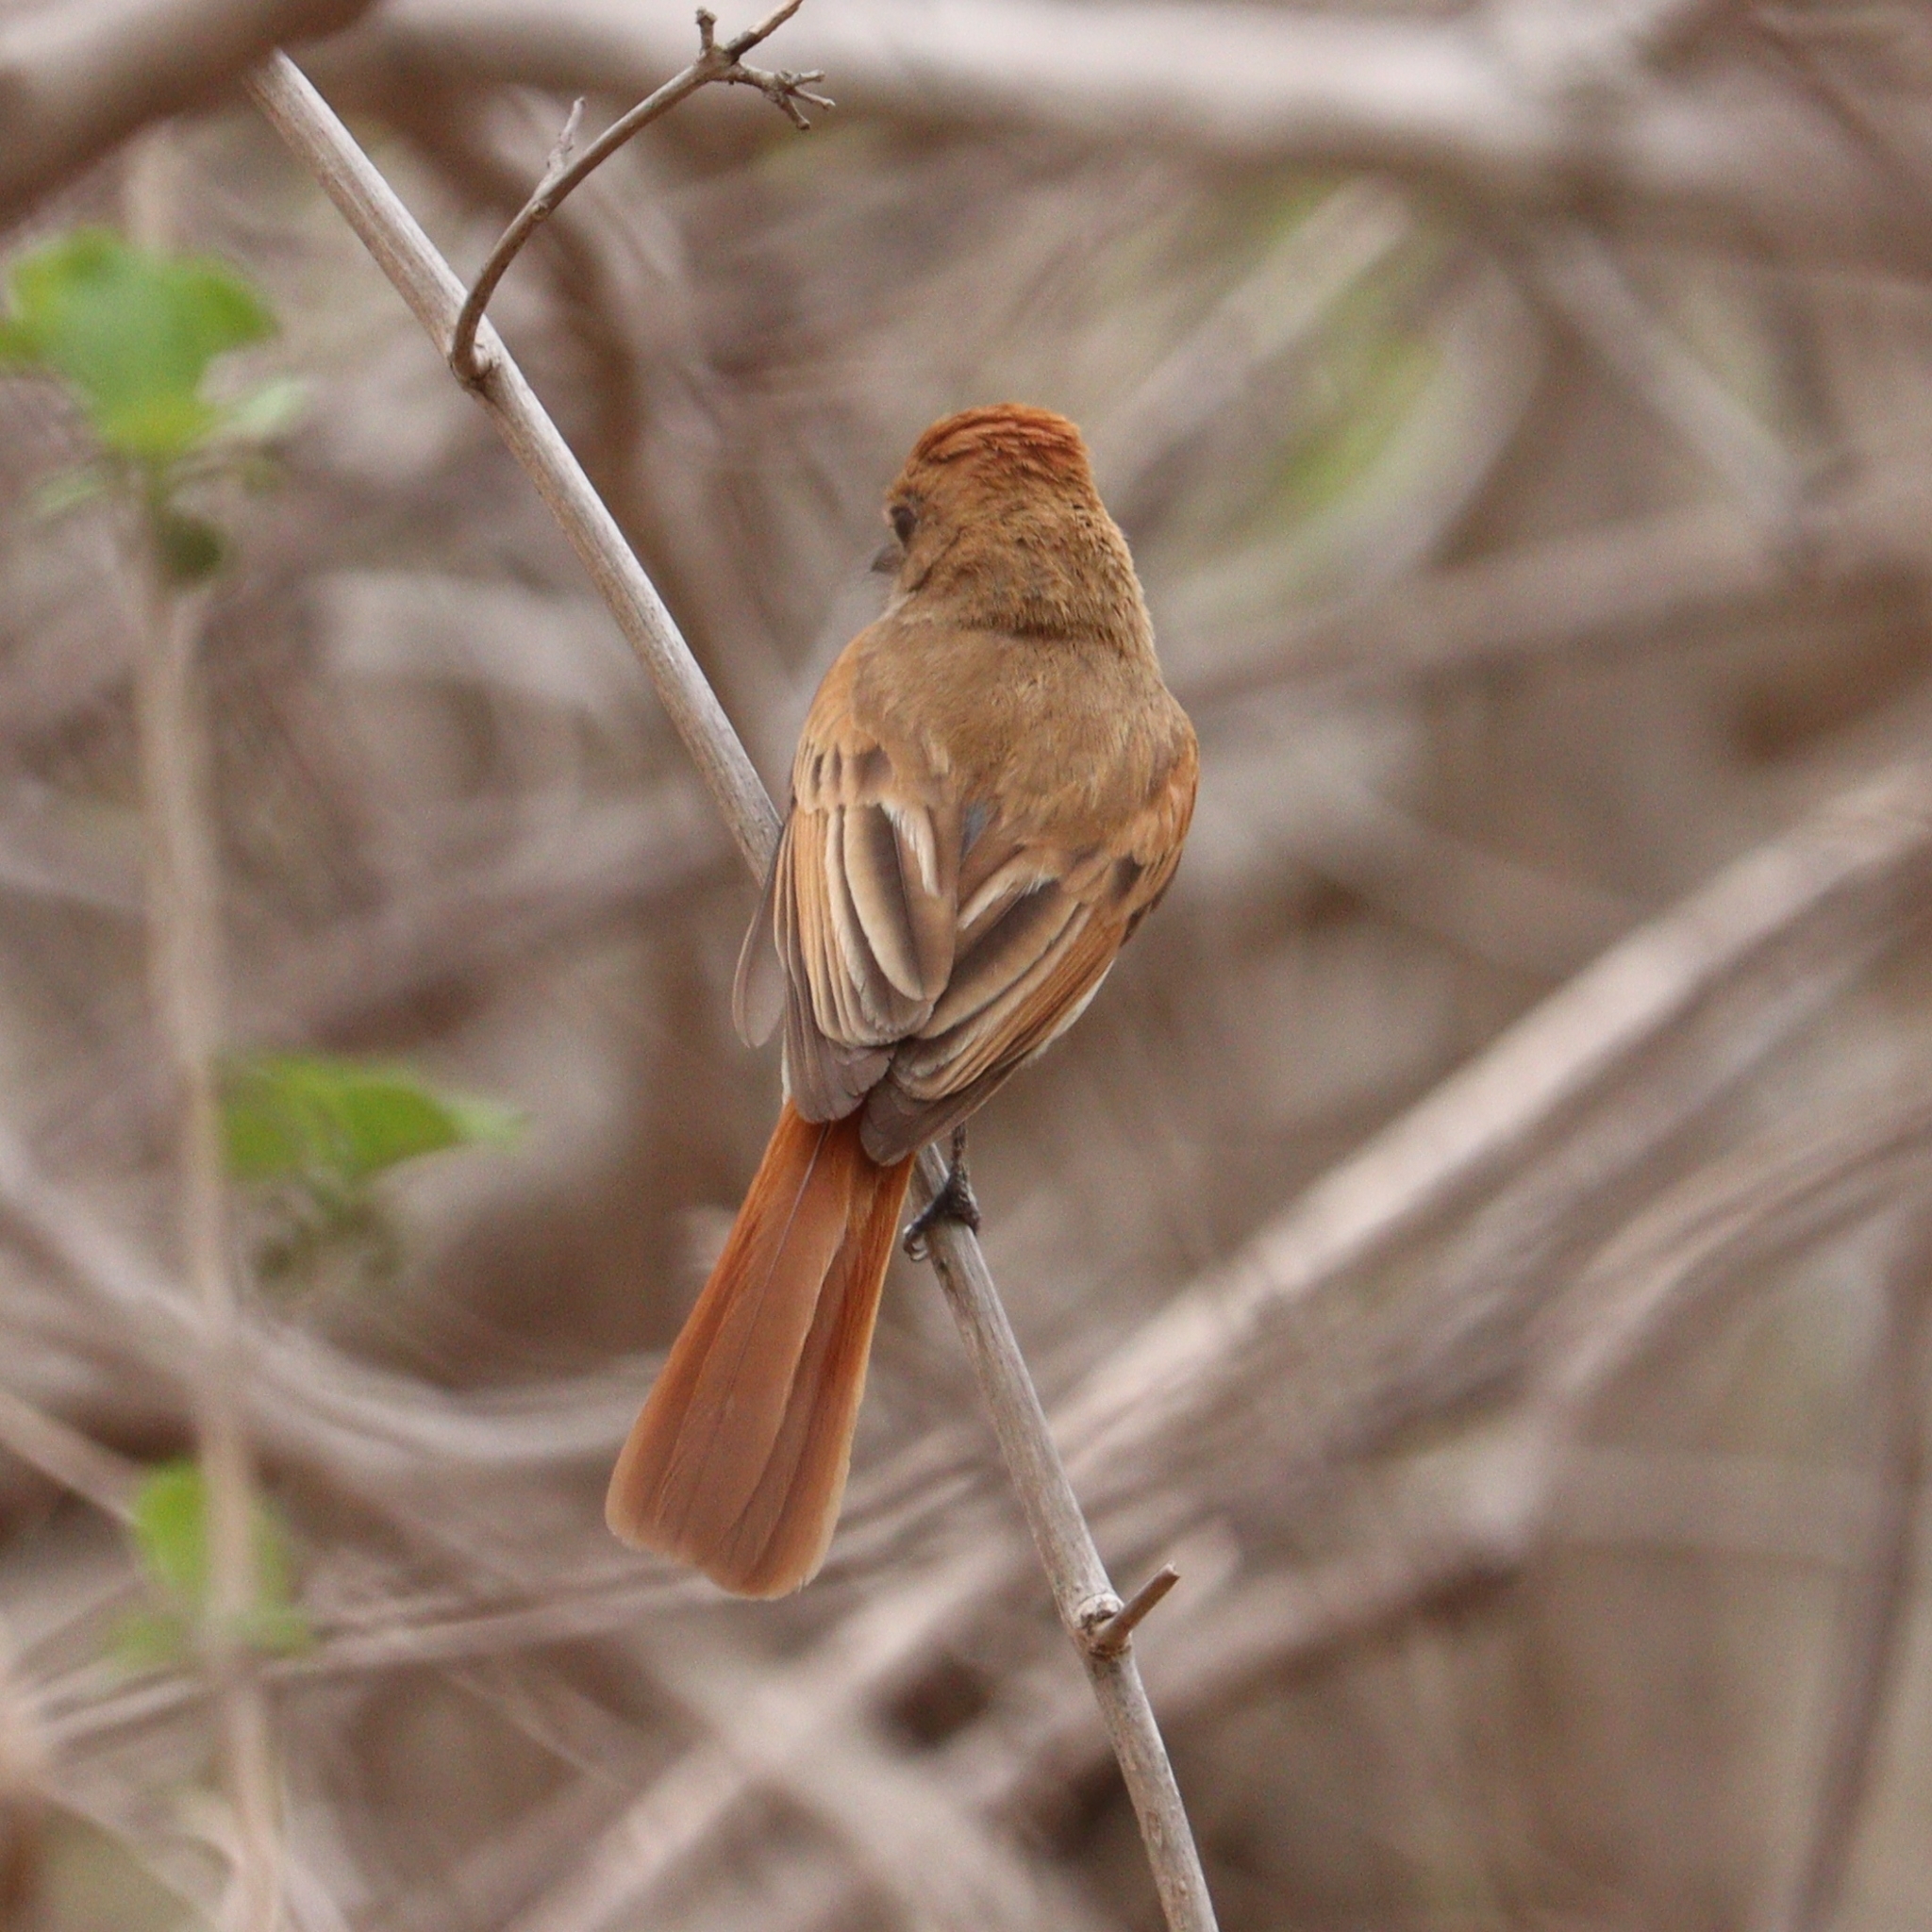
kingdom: Animalia
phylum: Chordata
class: Aves
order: Passeriformes
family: Tyrannidae
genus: Casiornis
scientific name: Casiornis fuscus
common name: Ash-throated casiornis
